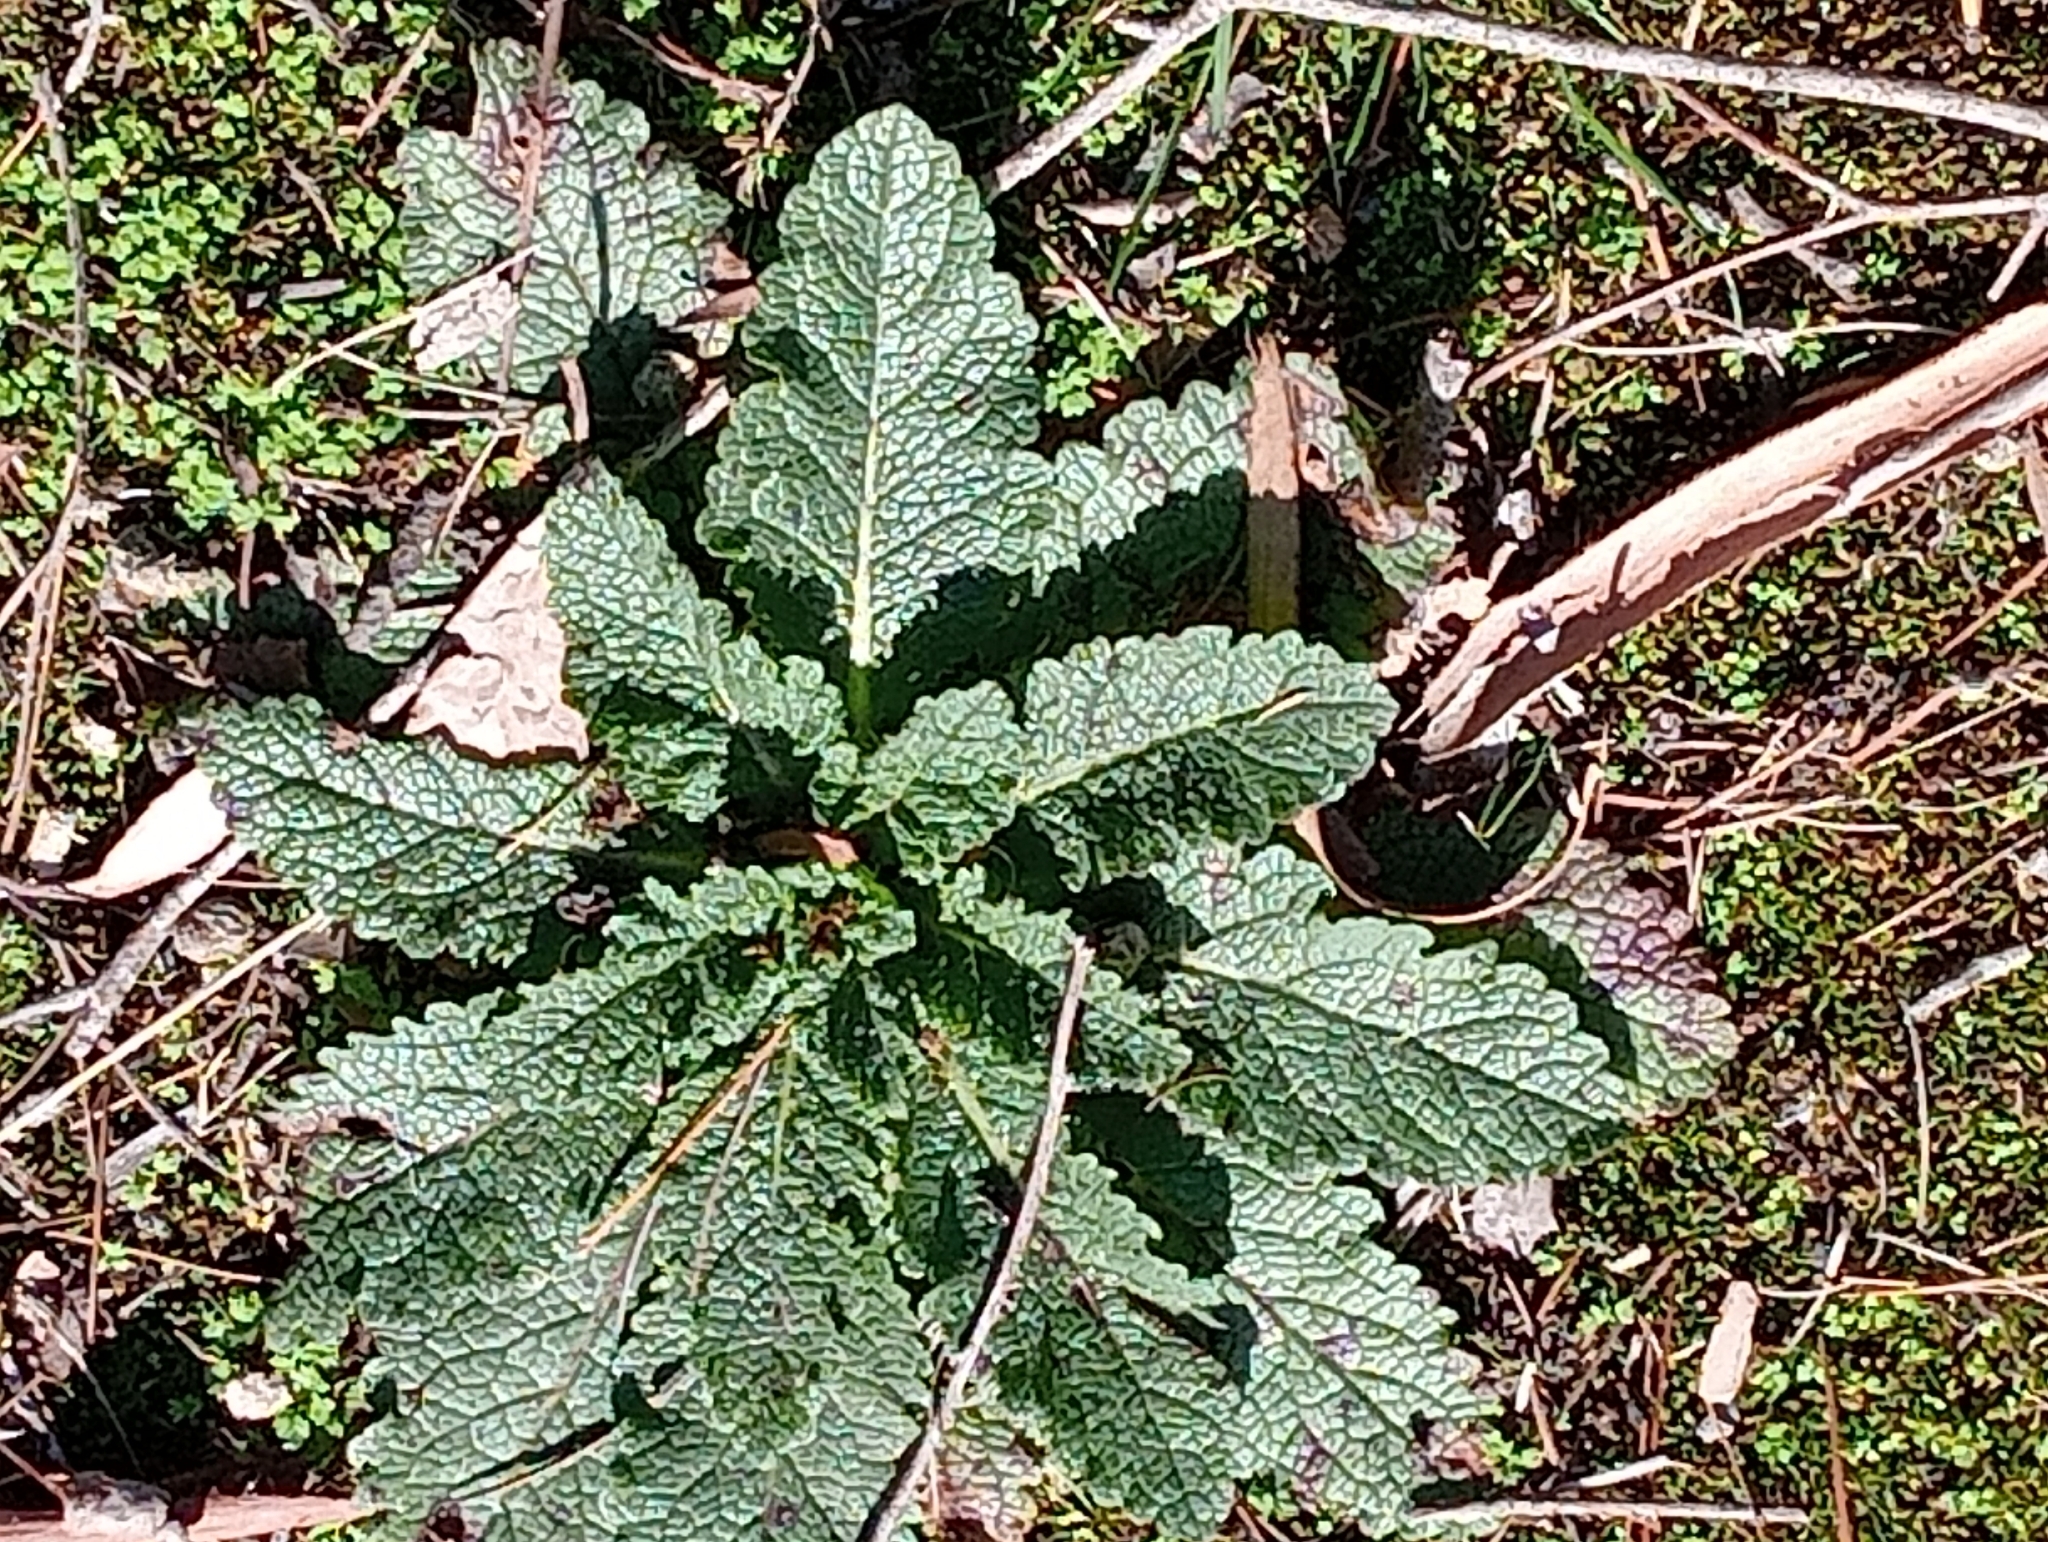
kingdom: Plantae
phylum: Tracheophyta
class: Magnoliopsida
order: Lamiales
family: Scrophulariaceae
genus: Verbascum
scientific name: Verbascum virgatum
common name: Twiggy mullein
